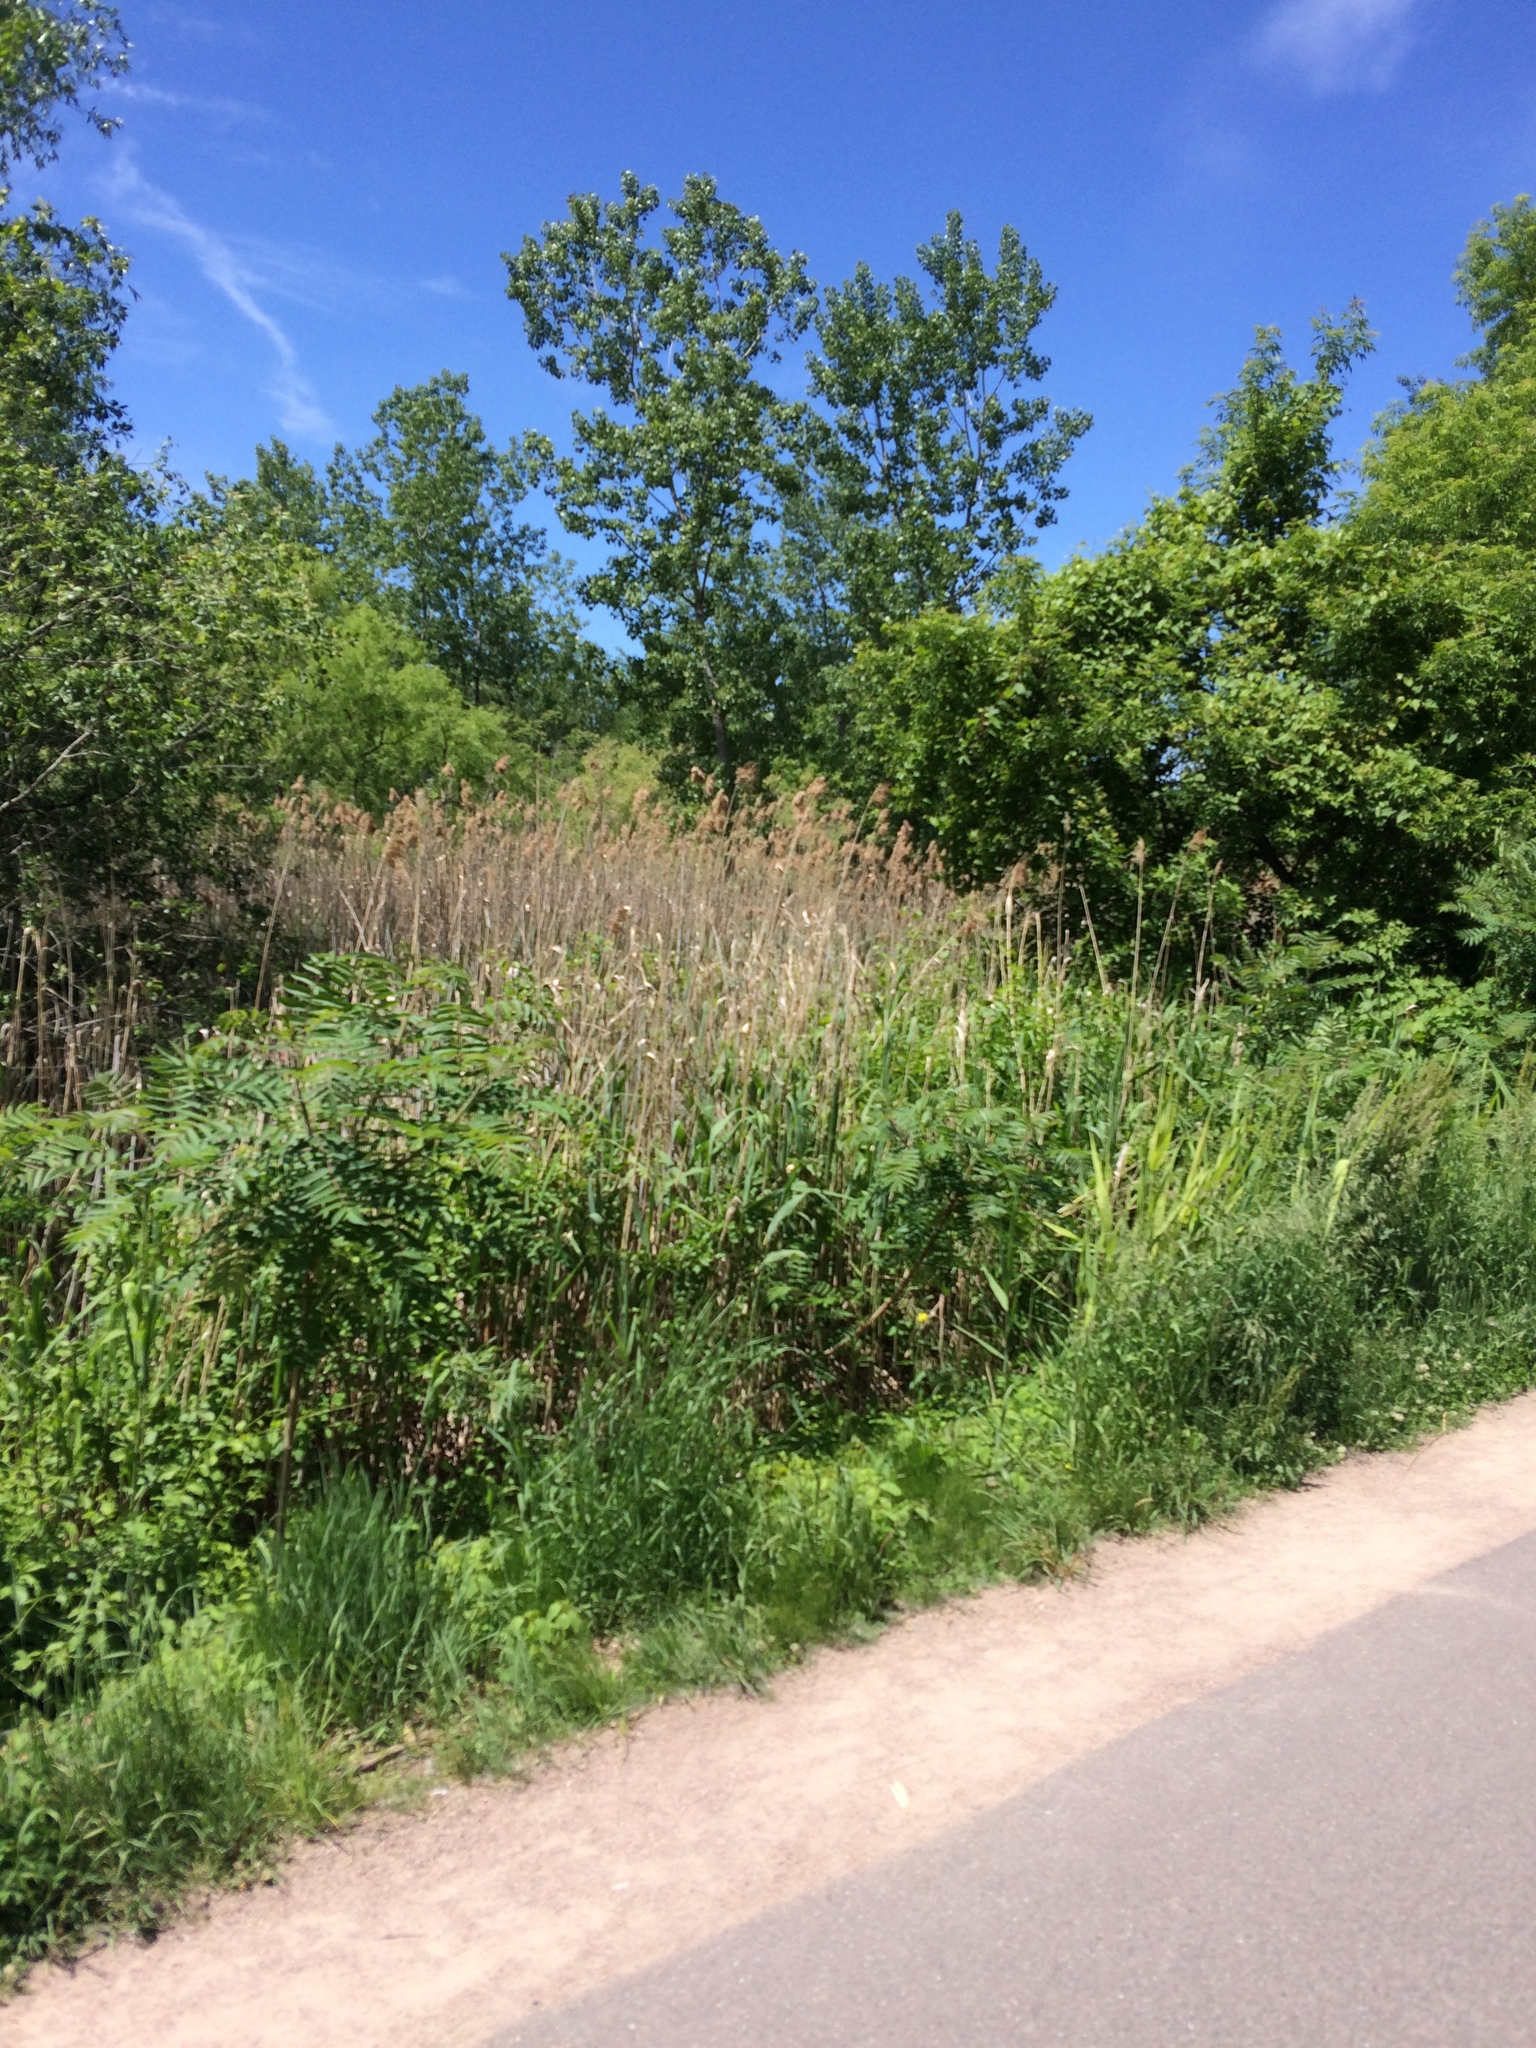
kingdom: Plantae
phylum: Tracheophyta
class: Liliopsida
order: Poales
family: Poaceae
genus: Phragmites
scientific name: Phragmites australis
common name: Common reed
